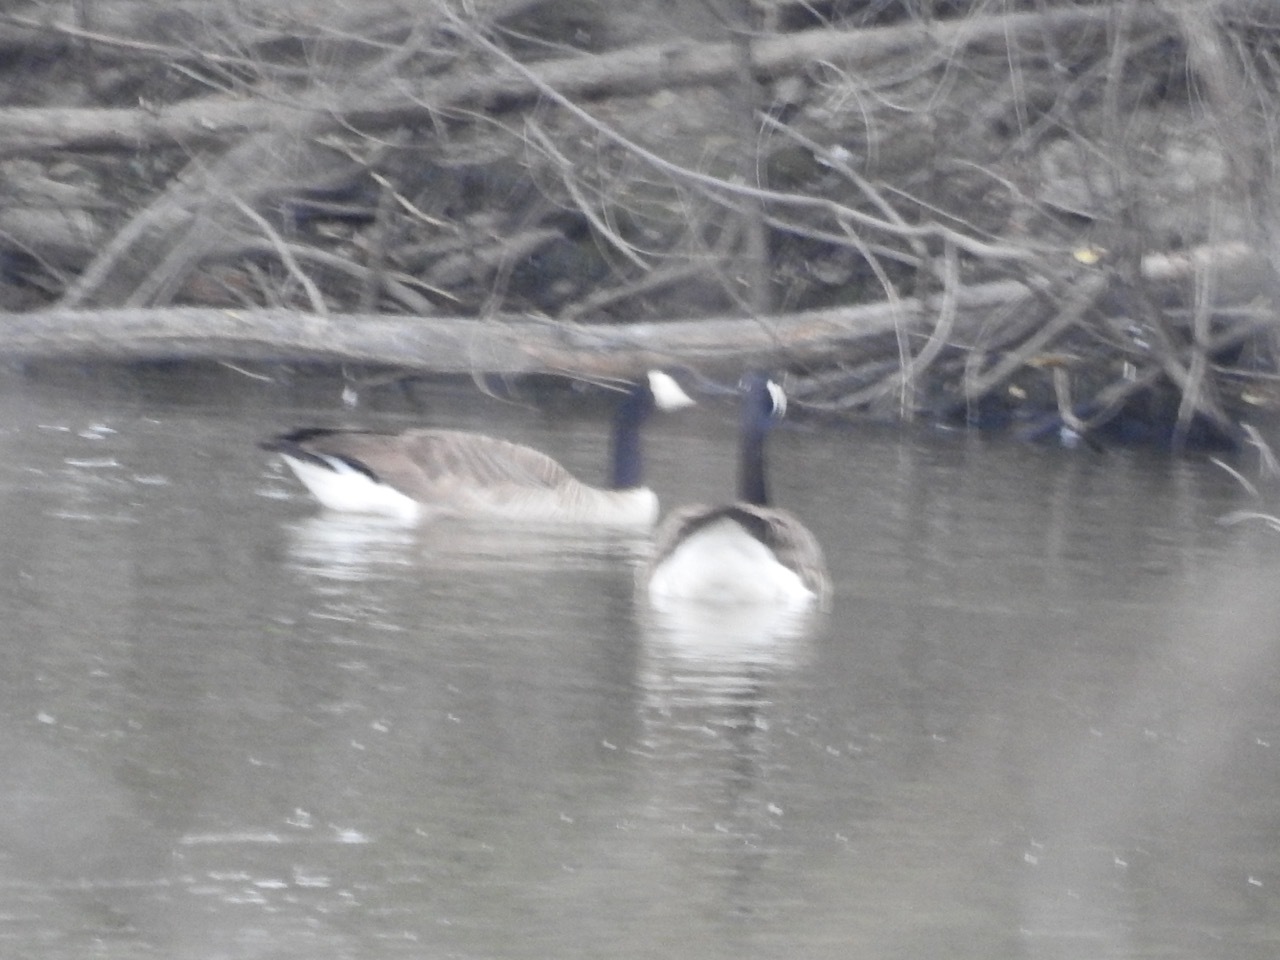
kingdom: Animalia
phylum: Chordata
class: Aves
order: Anseriformes
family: Anatidae
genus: Branta
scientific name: Branta canadensis
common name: Canada goose
